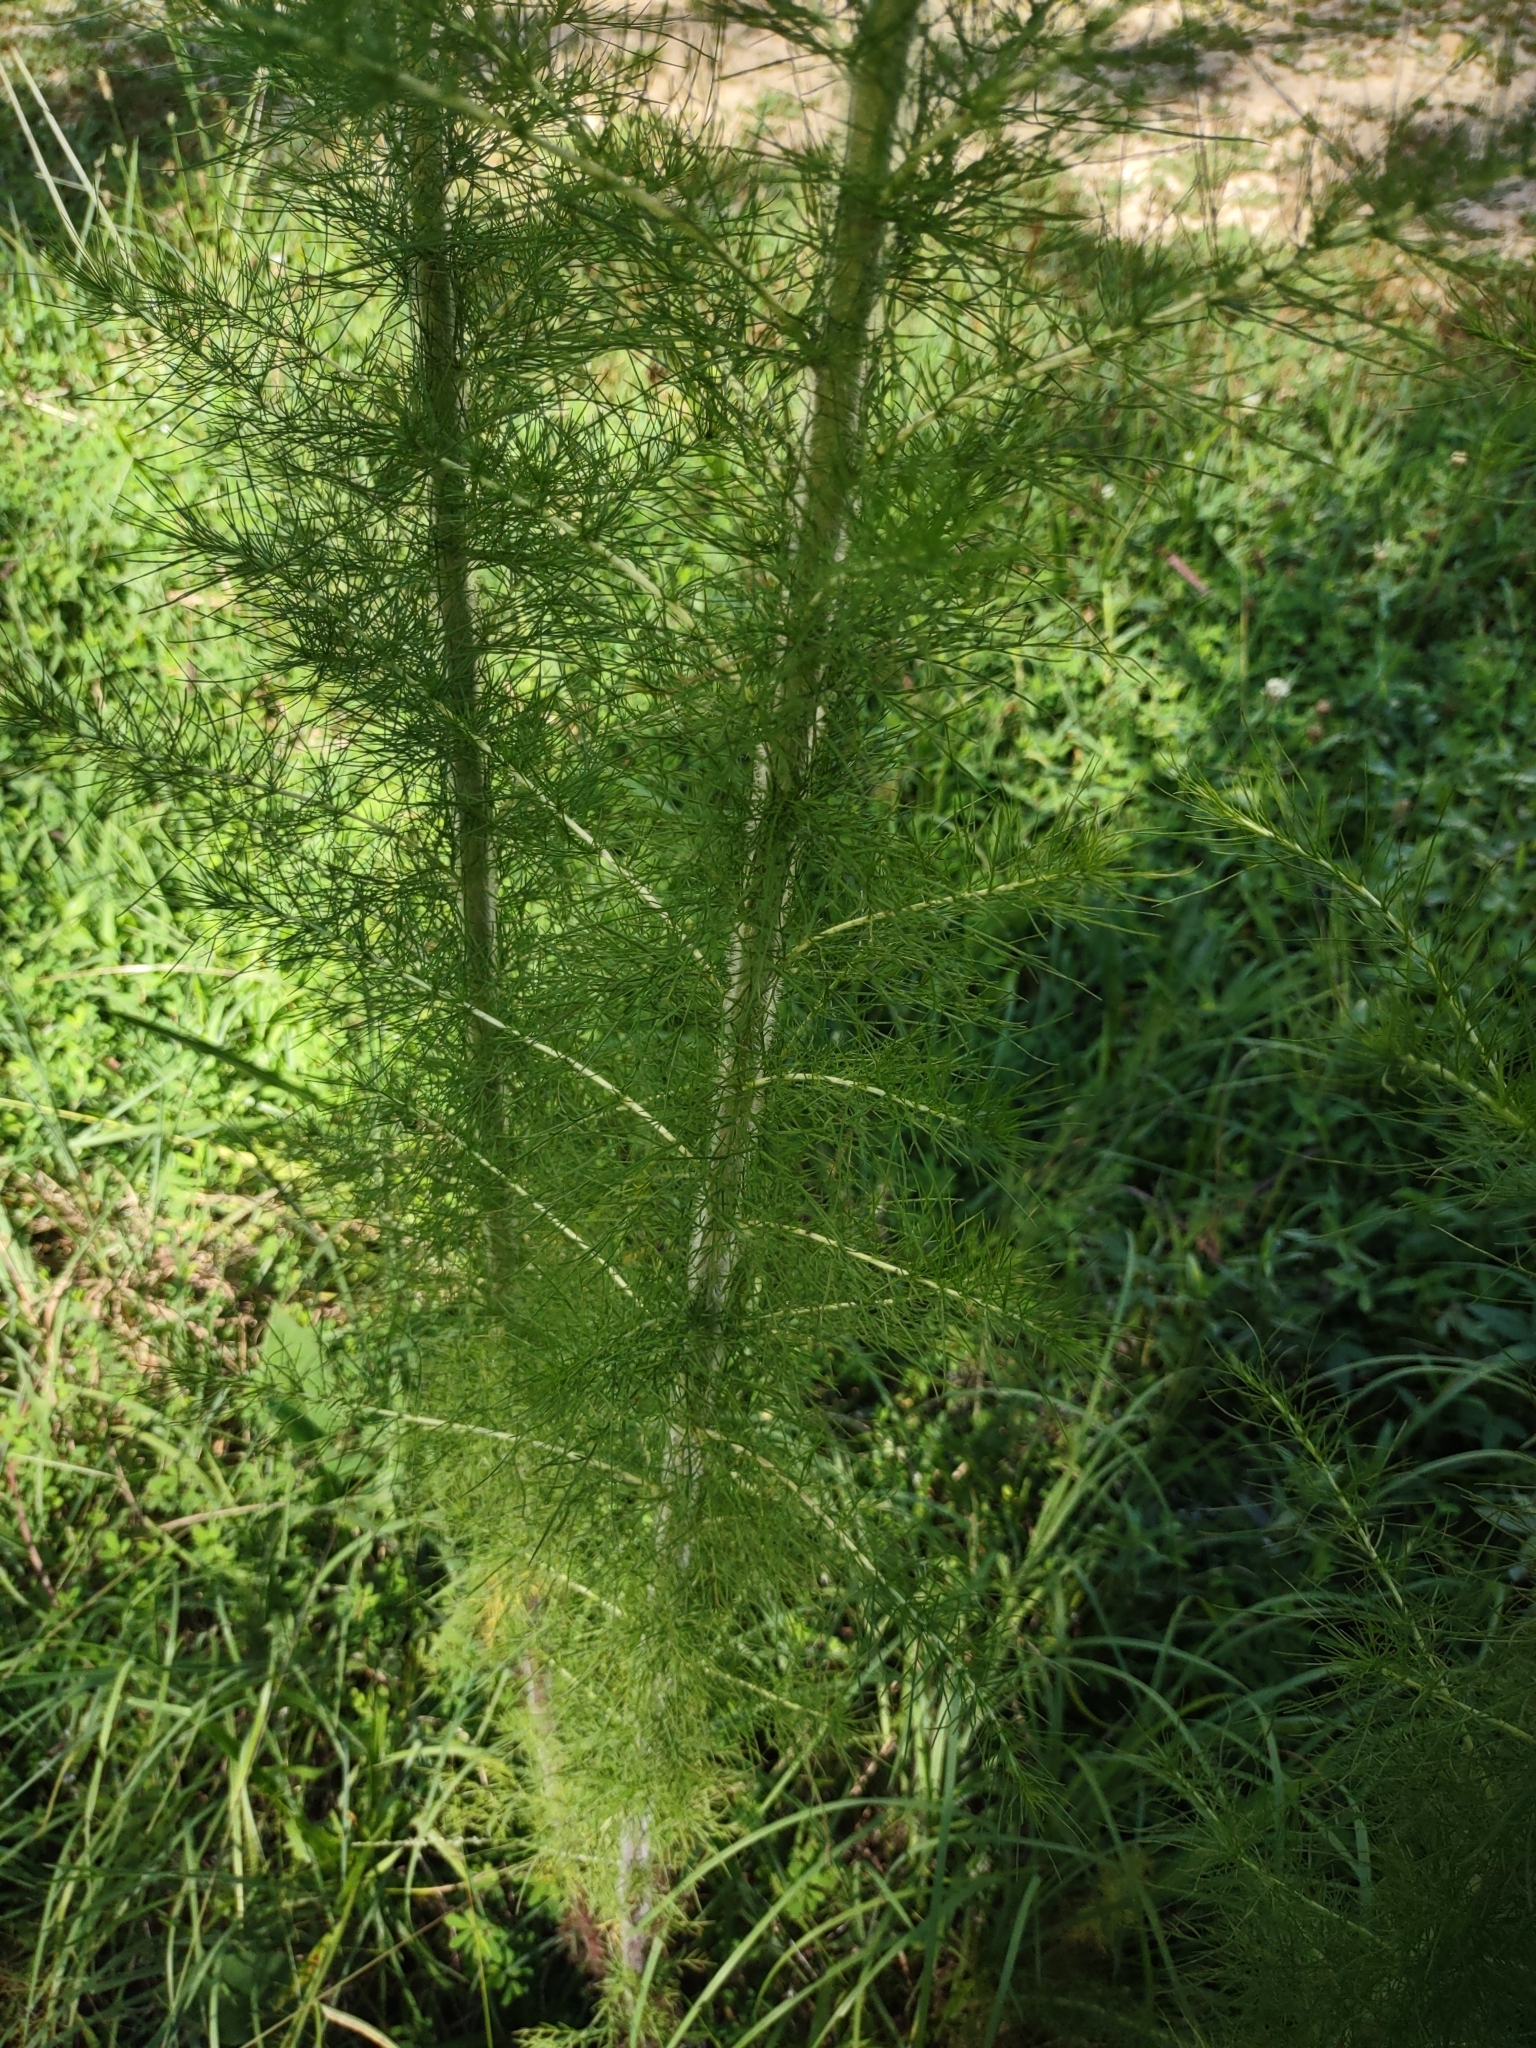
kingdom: Plantae
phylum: Tracheophyta
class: Magnoliopsida
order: Asterales
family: Asteraceae
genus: Eupatorium
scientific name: Eupatorium capillifolium
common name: Dog-fennel
